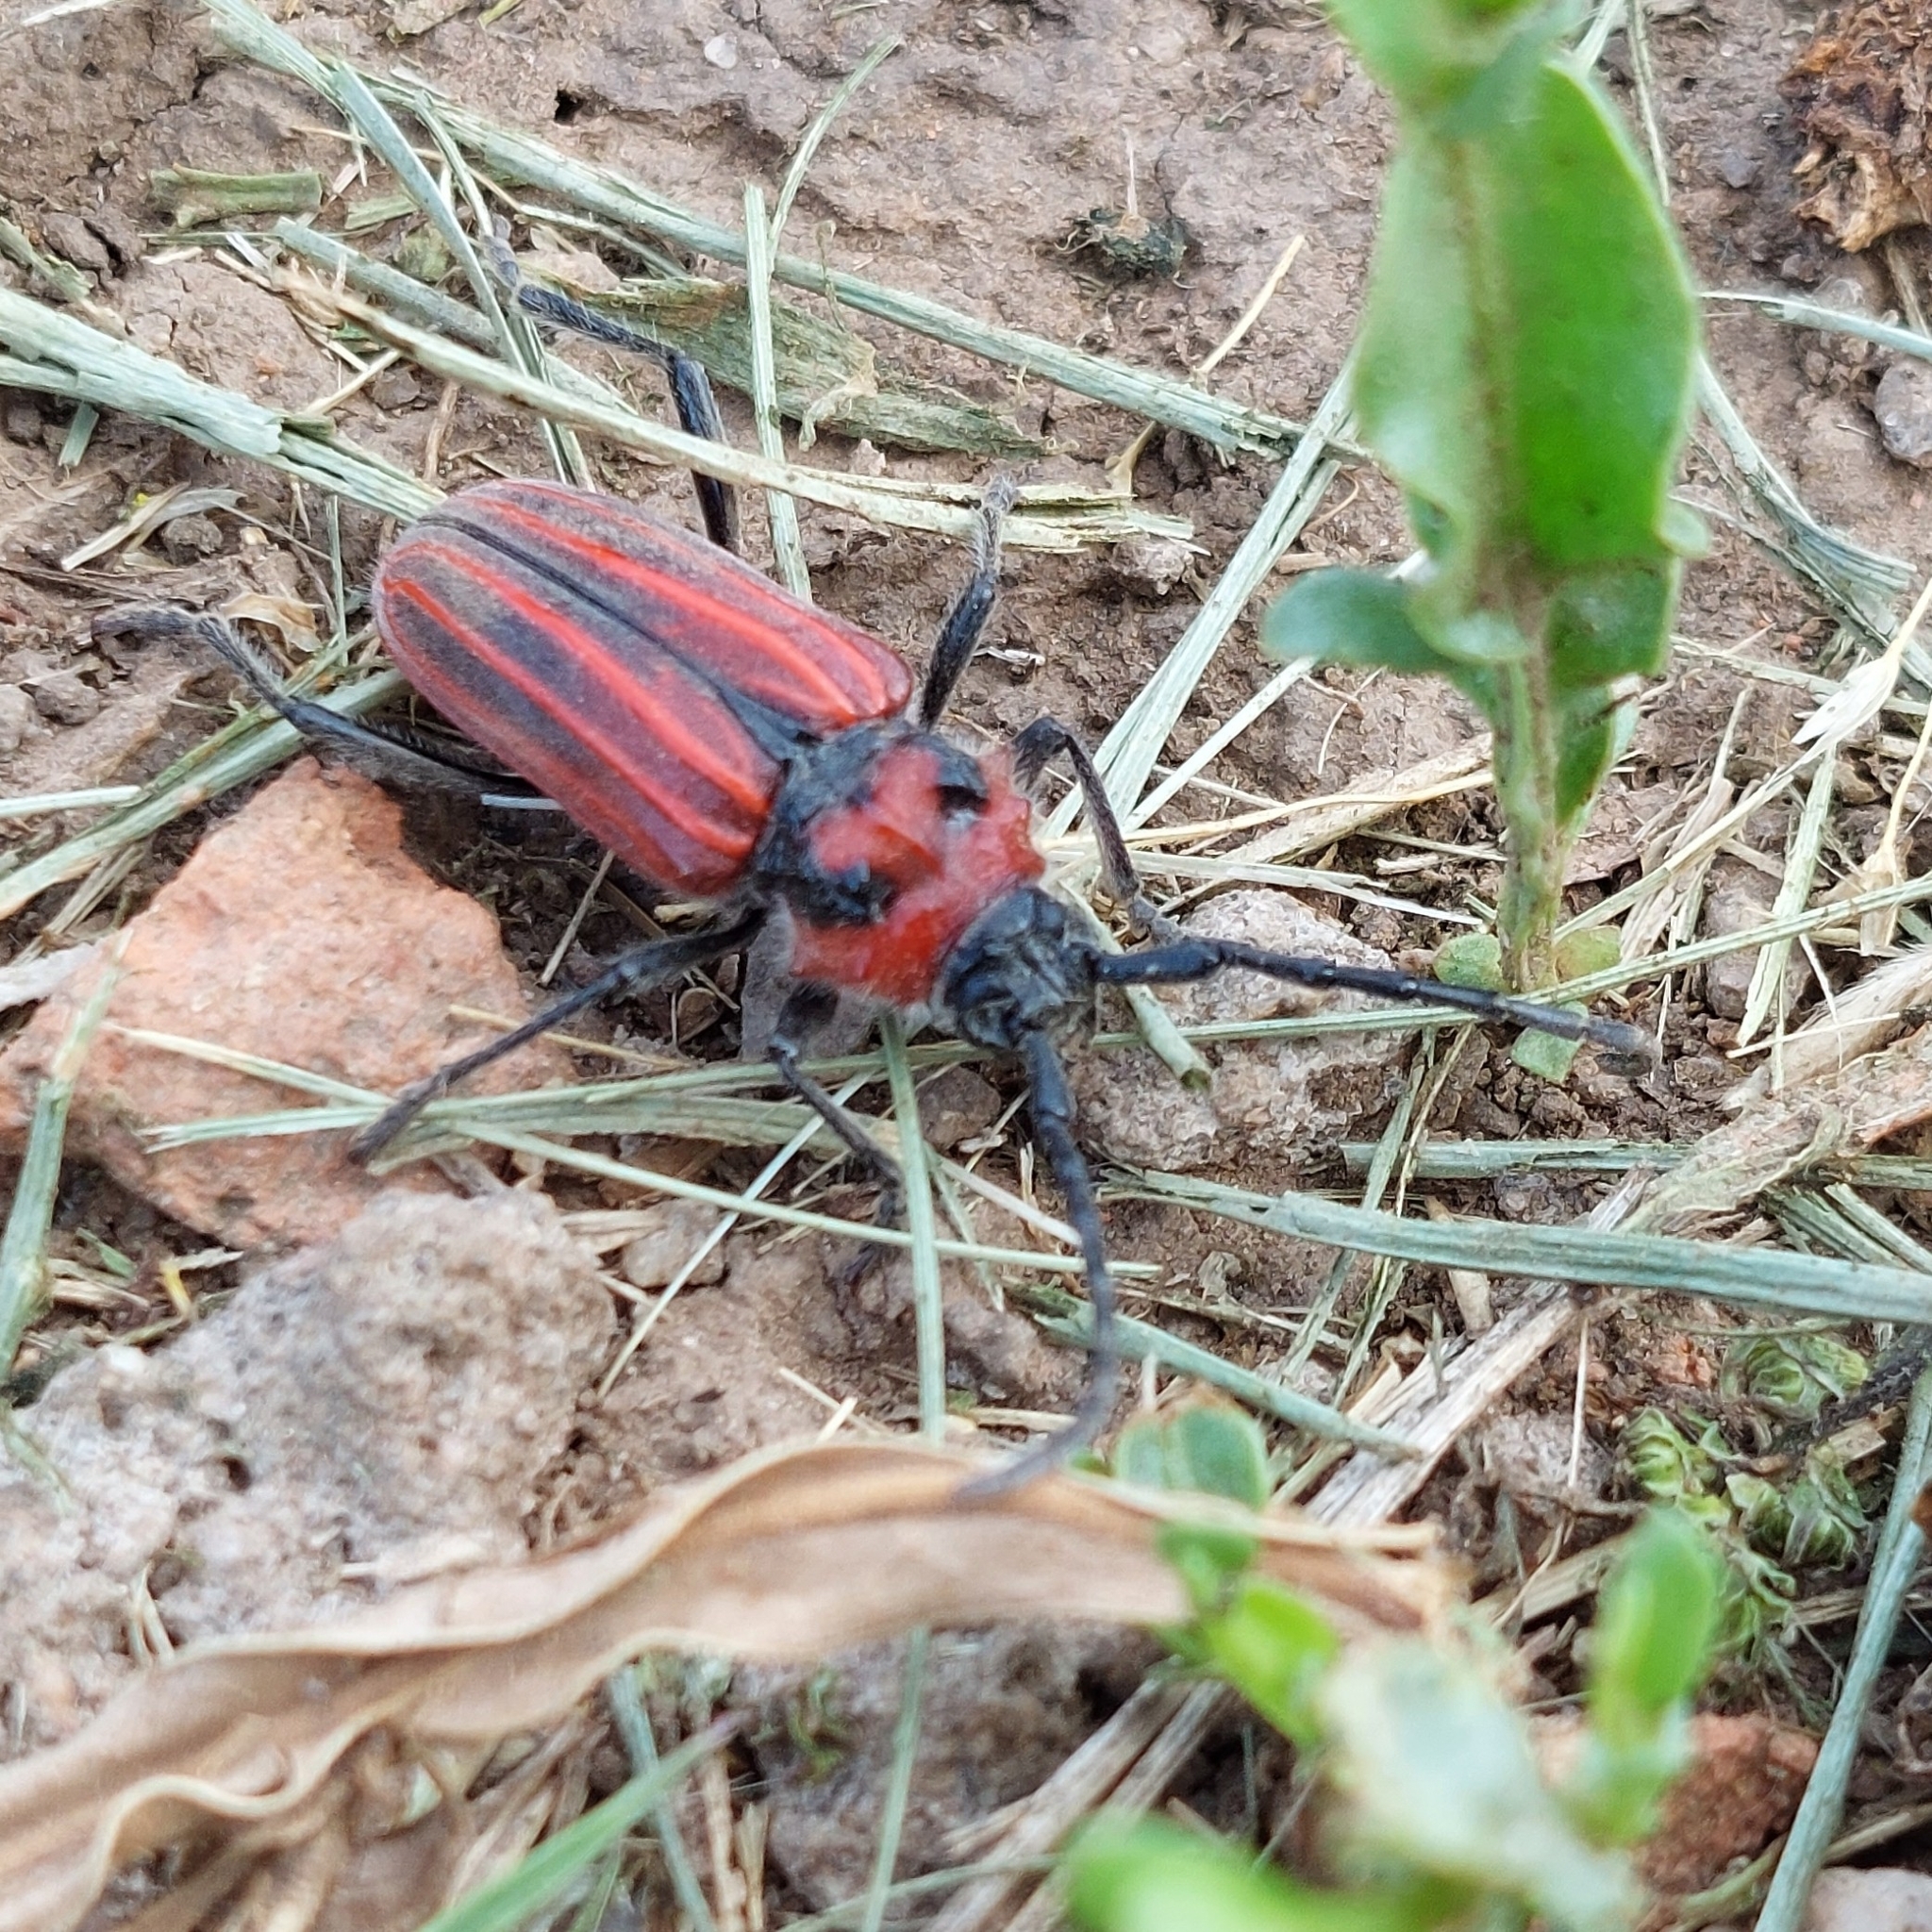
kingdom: Animalia
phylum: Arthropoda
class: Insecta
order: Coleoptera
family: Cerambycidae
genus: Eriocharis
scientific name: Eriocharis richardii
